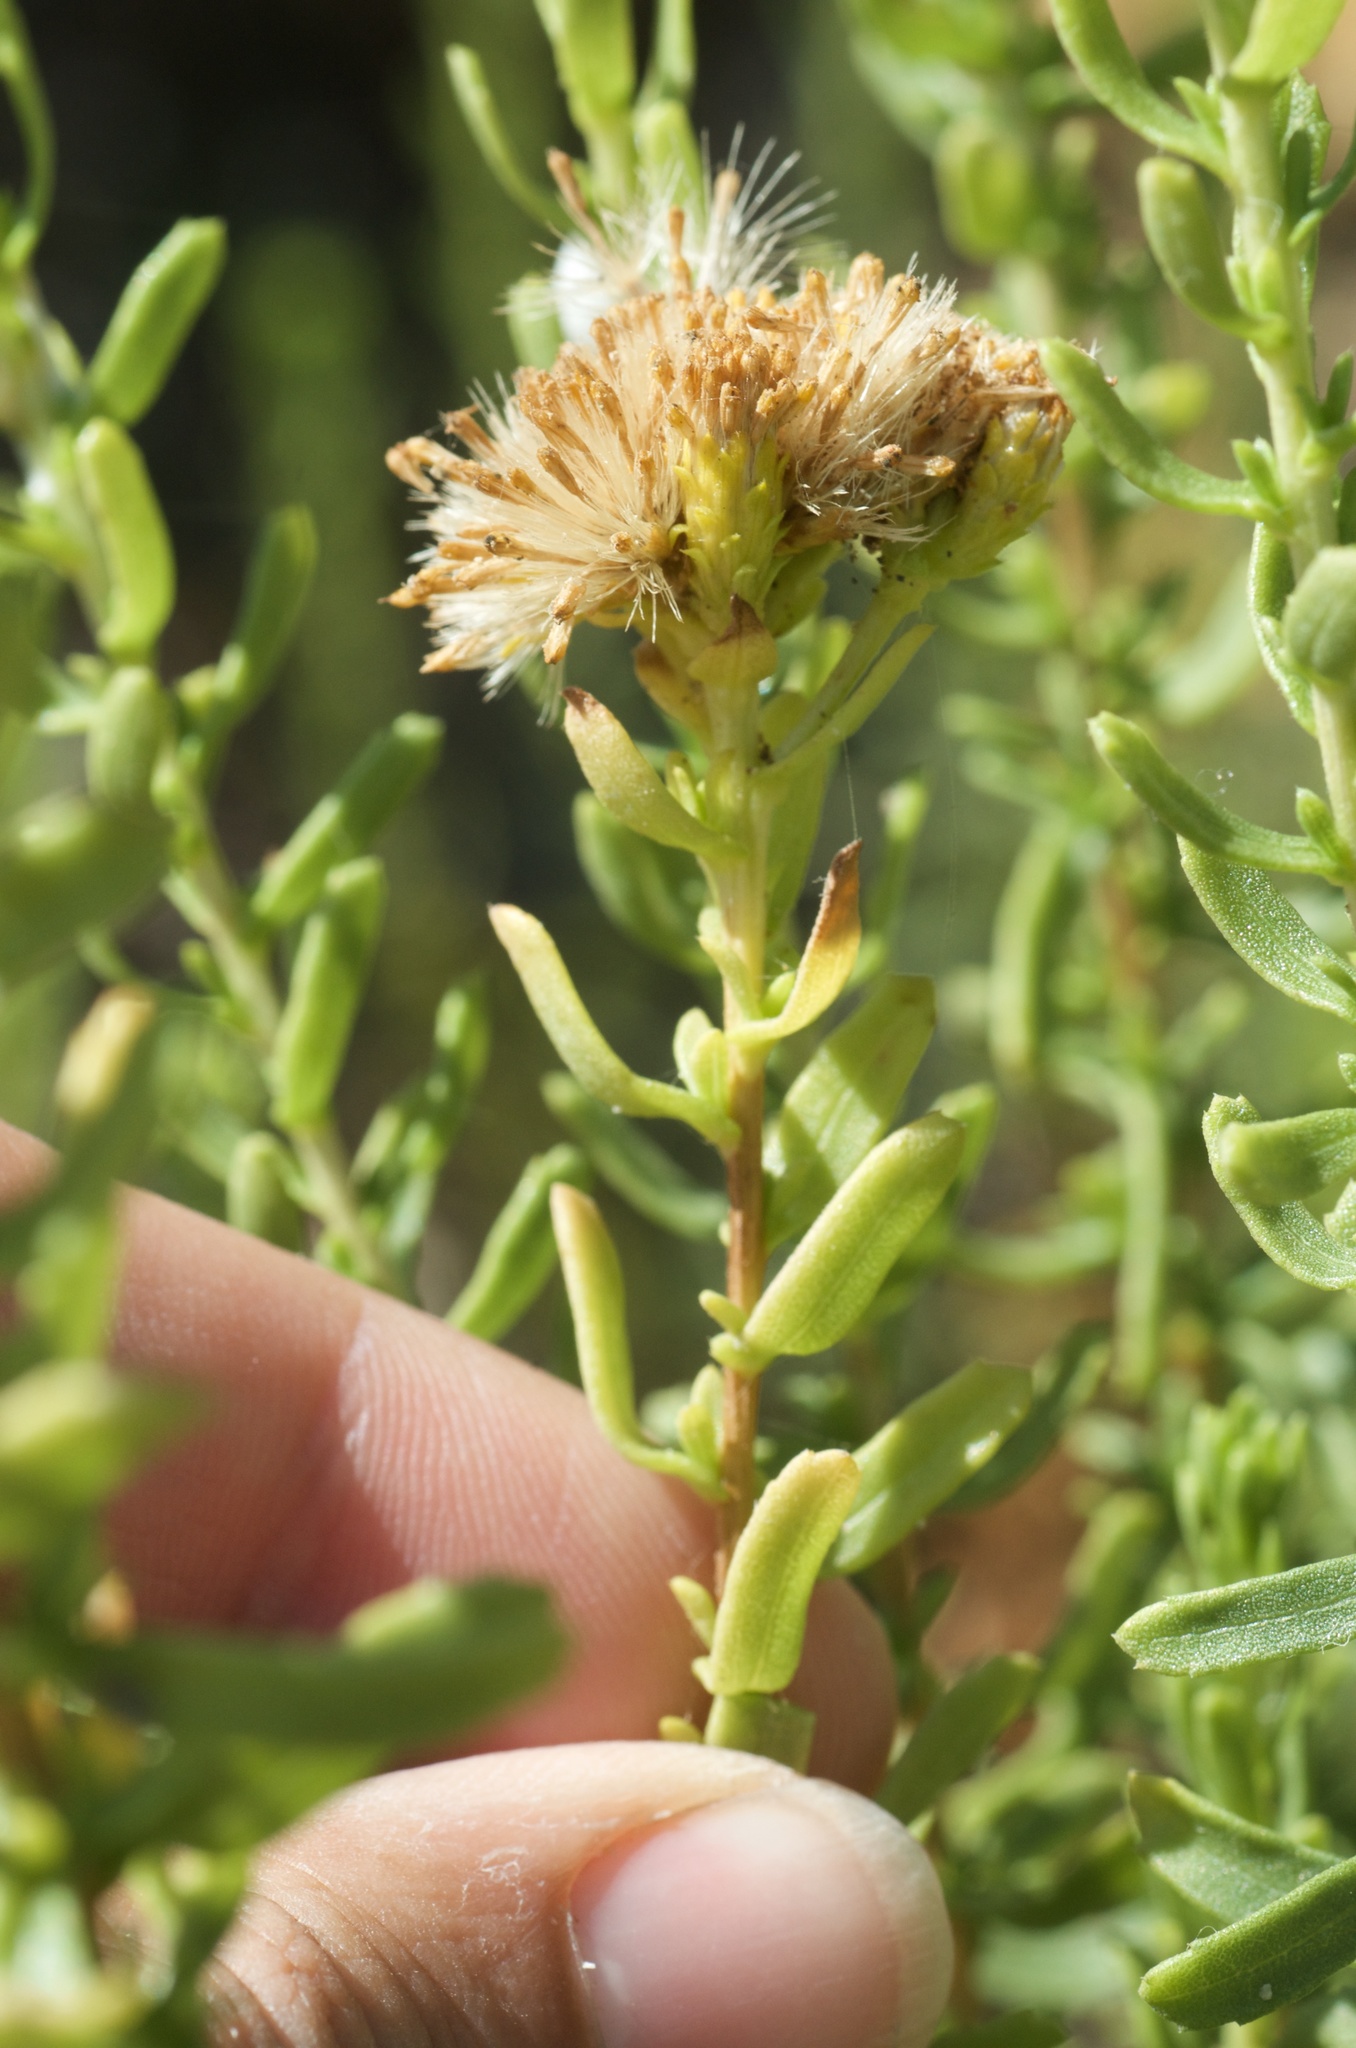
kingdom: Plantae
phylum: Tracheophyta
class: Magnoliopsida
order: Asterales
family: Asteraceae
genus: Isocoma
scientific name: Isocoma menziesii
